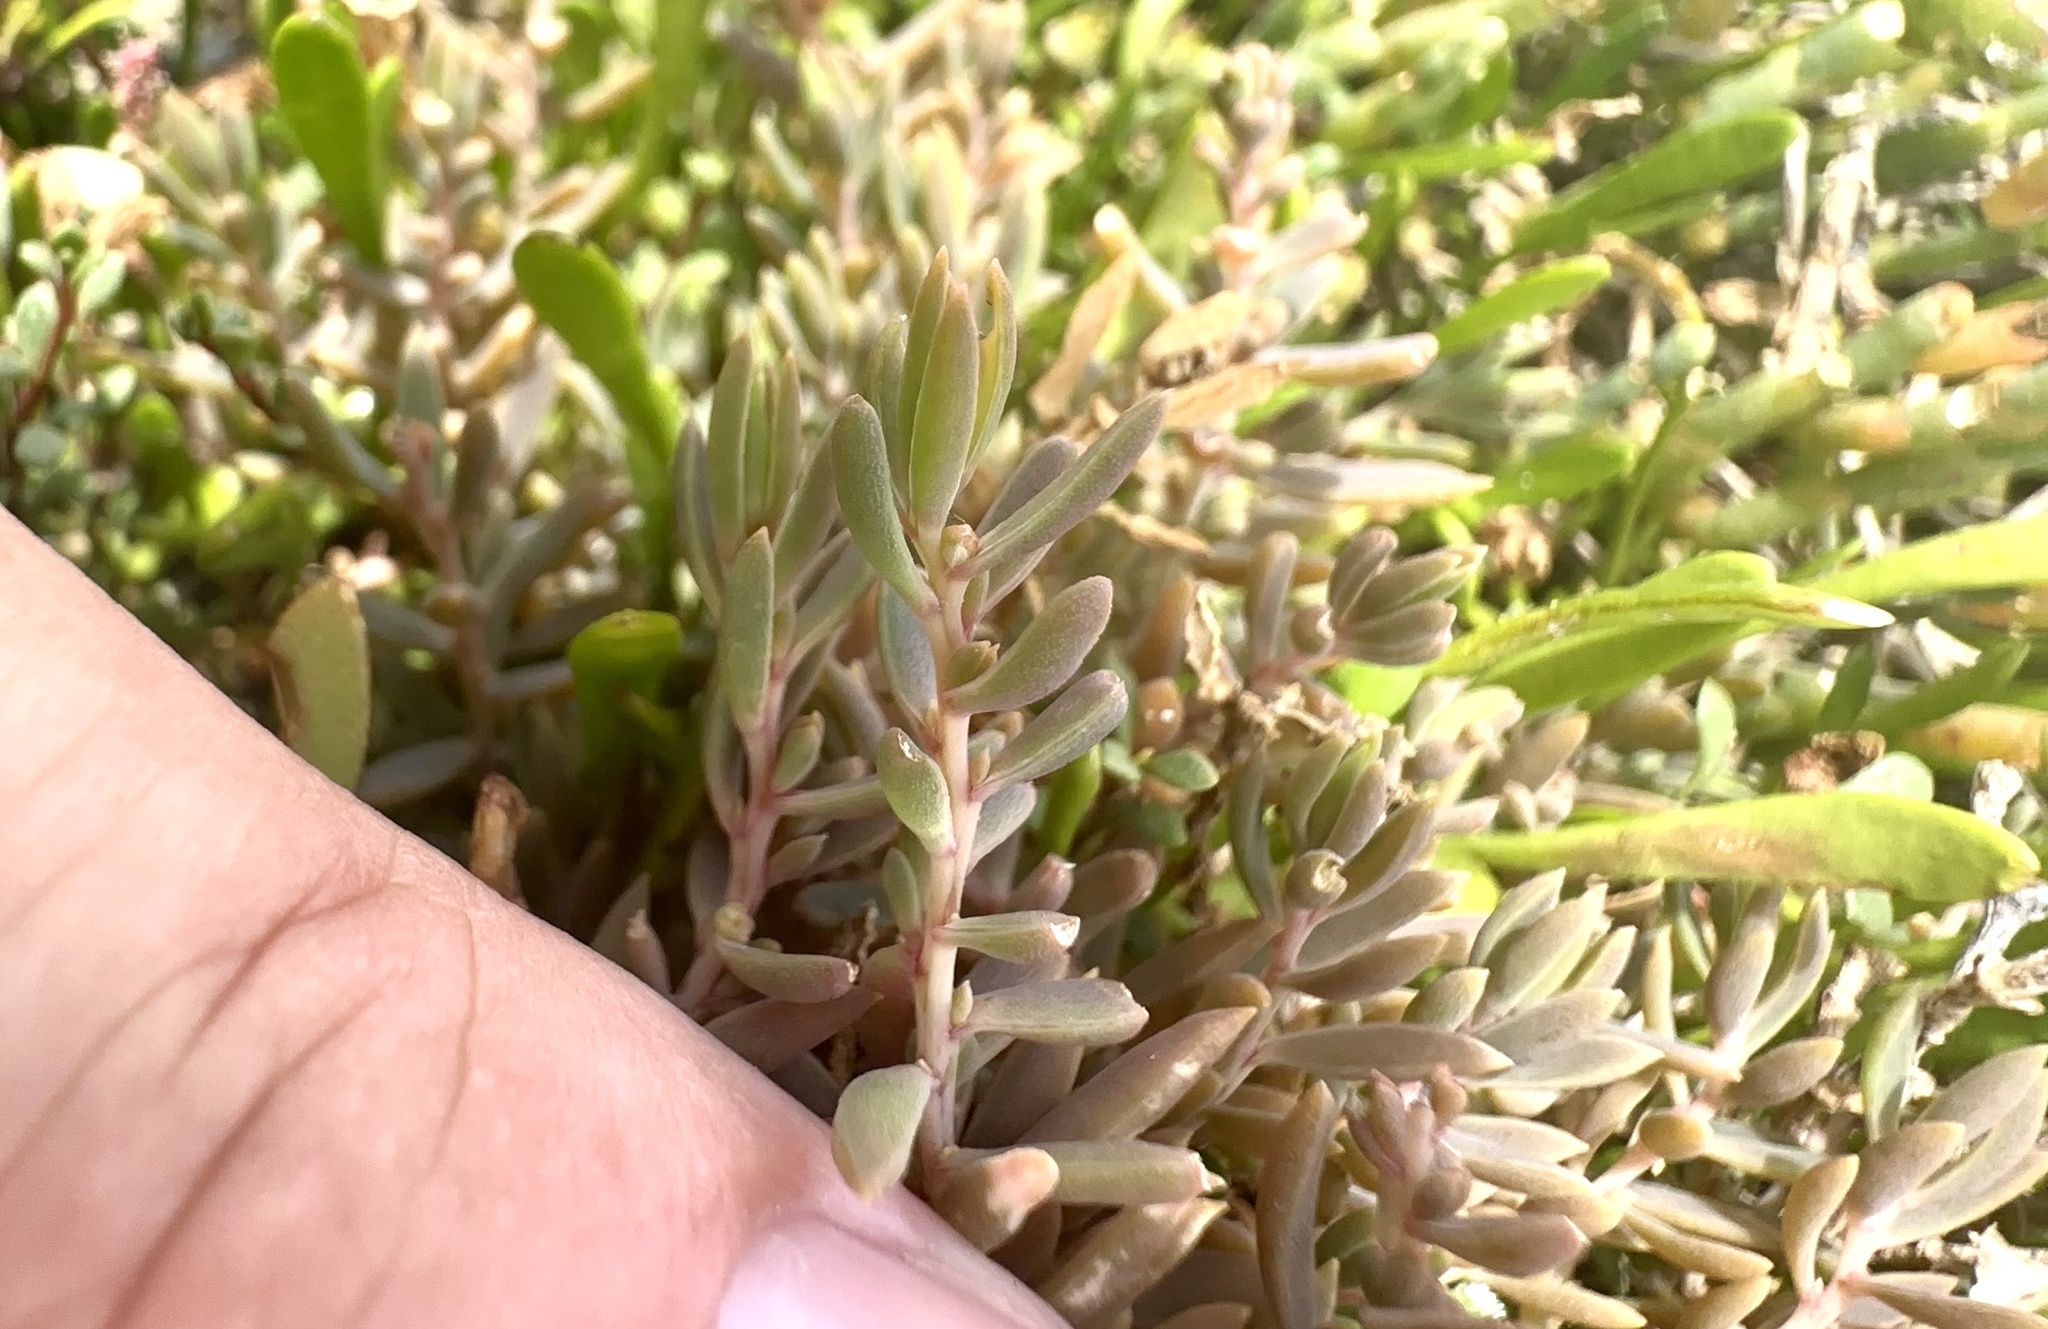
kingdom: Plantae
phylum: Tracheophyta
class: Magnoliopsida
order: Caryophyllales
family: Amaranthaceae
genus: Suaeda
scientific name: Suaeda novae-zelandiae
